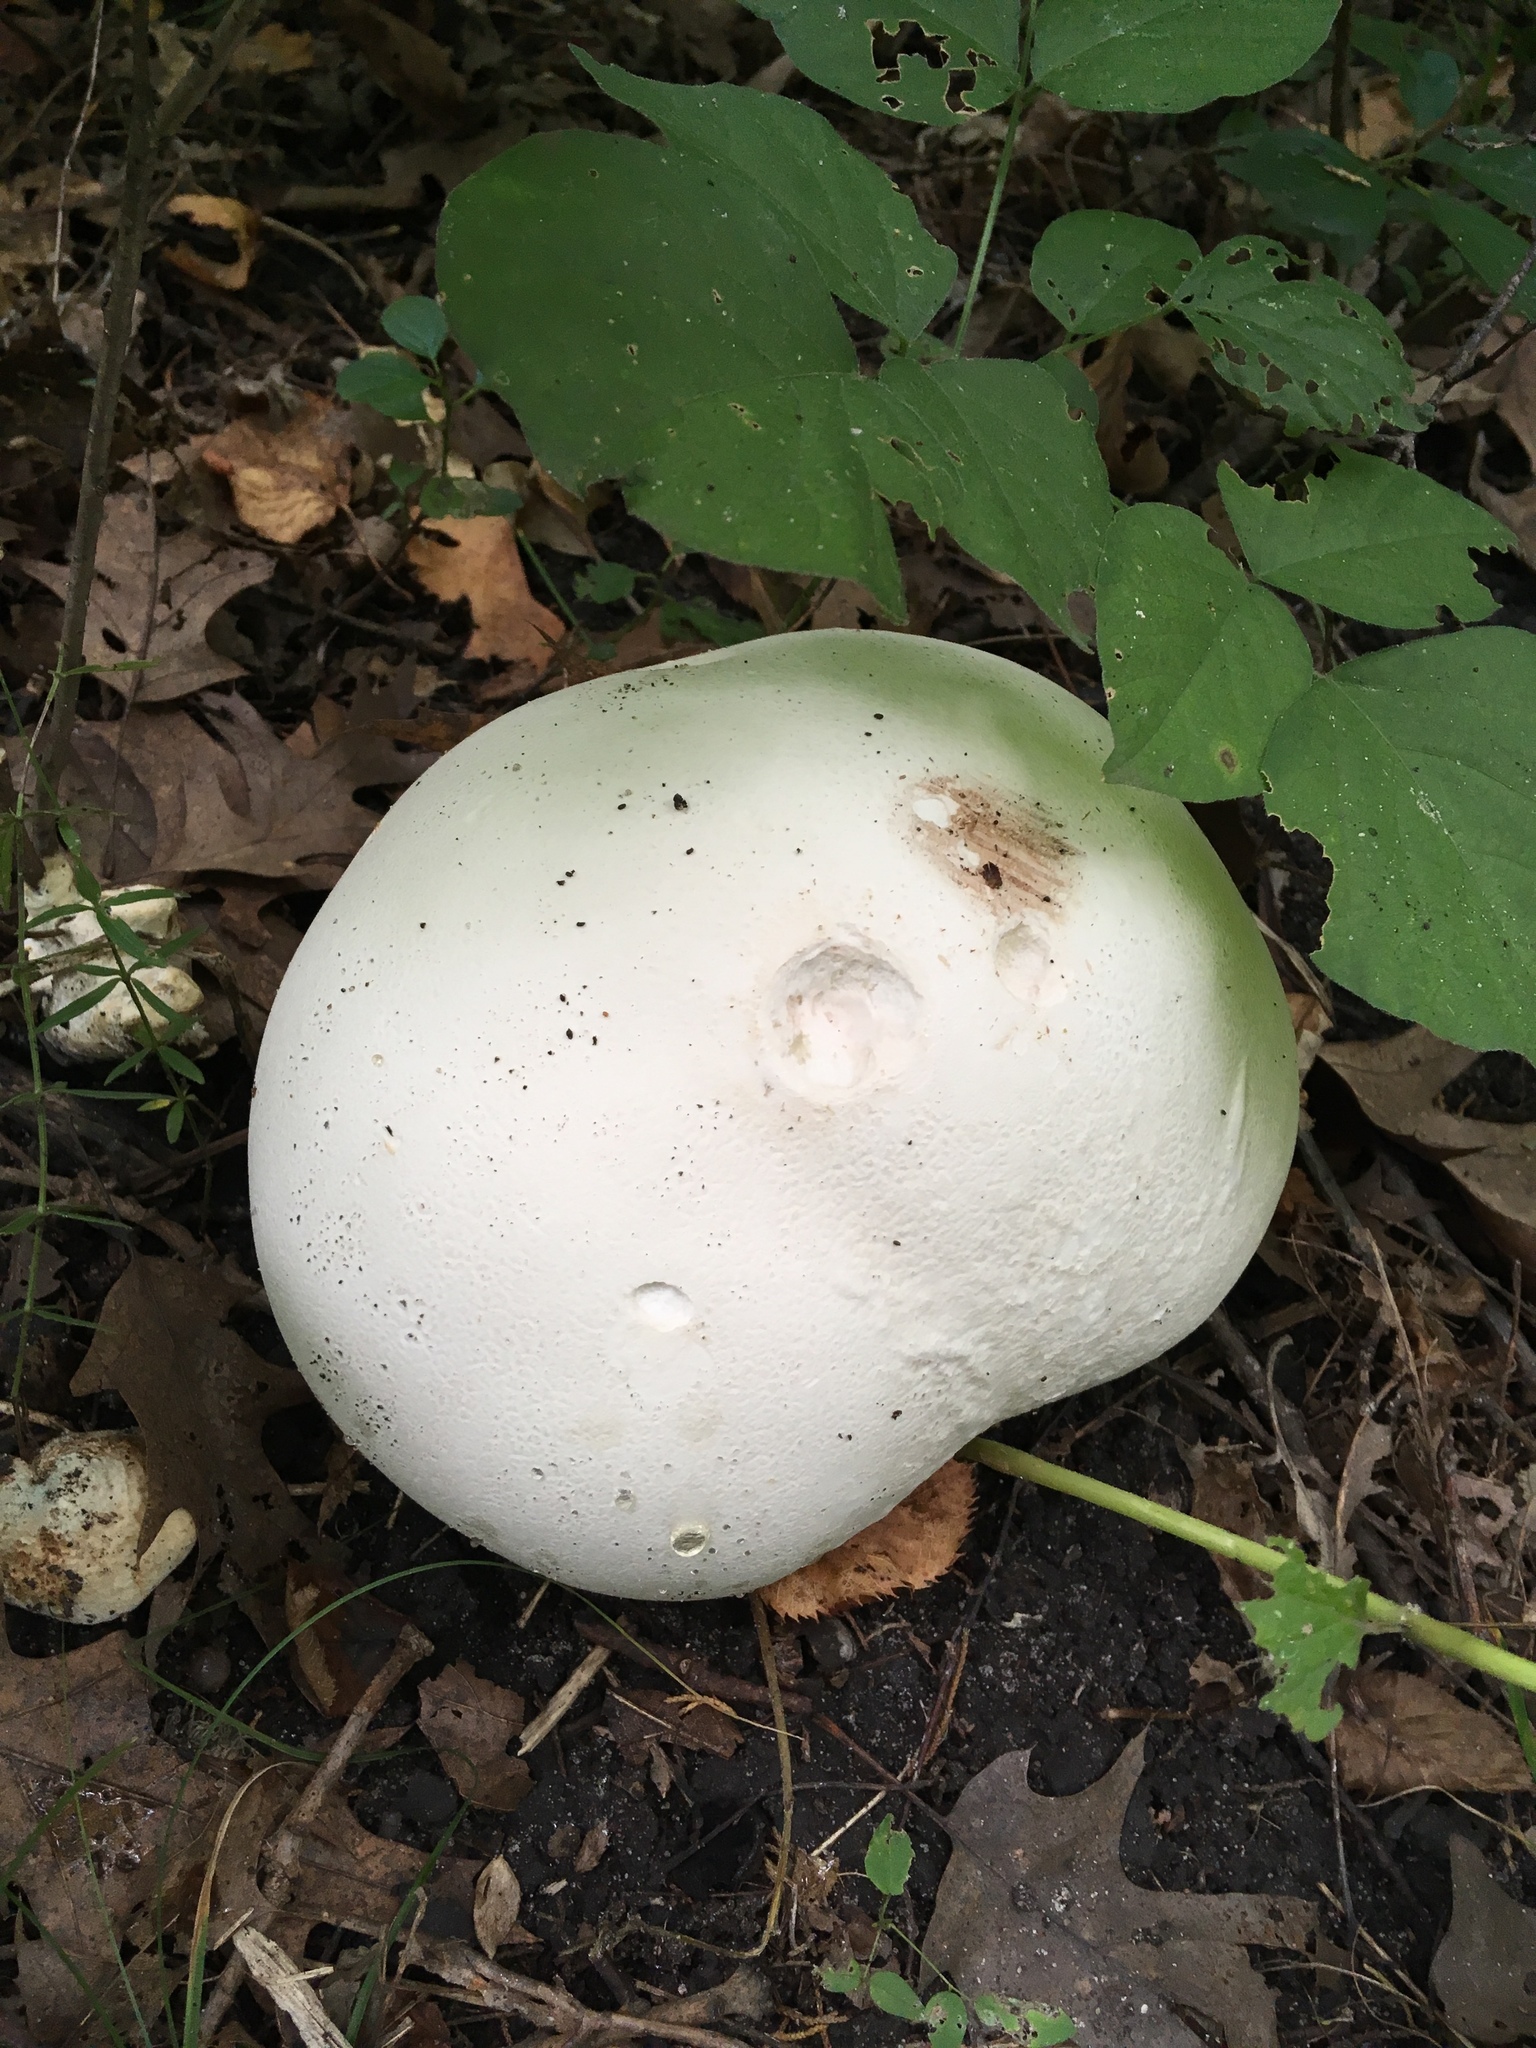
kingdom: Fungi
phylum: Basidiomycota
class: Agaricomycetes
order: Agaricales
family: Lycoperdaceae
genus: Calvatia
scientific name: Calvatia gigantea
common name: Giant puffball
